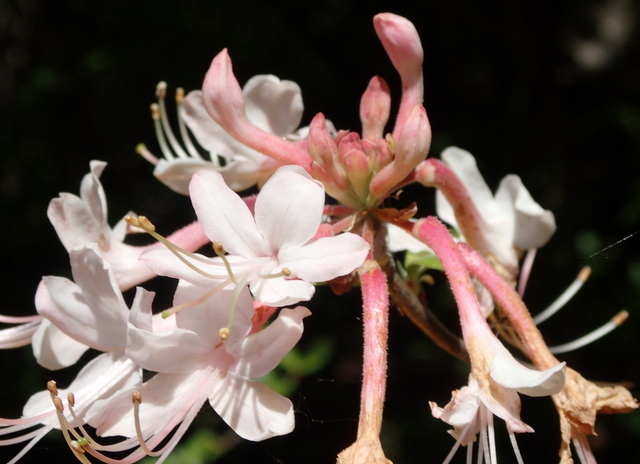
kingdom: Plantae
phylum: Tracheophyta
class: Magnoliopsida
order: Ericales
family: Ericaceae
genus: Rhododendron
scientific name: Rhododendron canescens
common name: Mountain azalea
